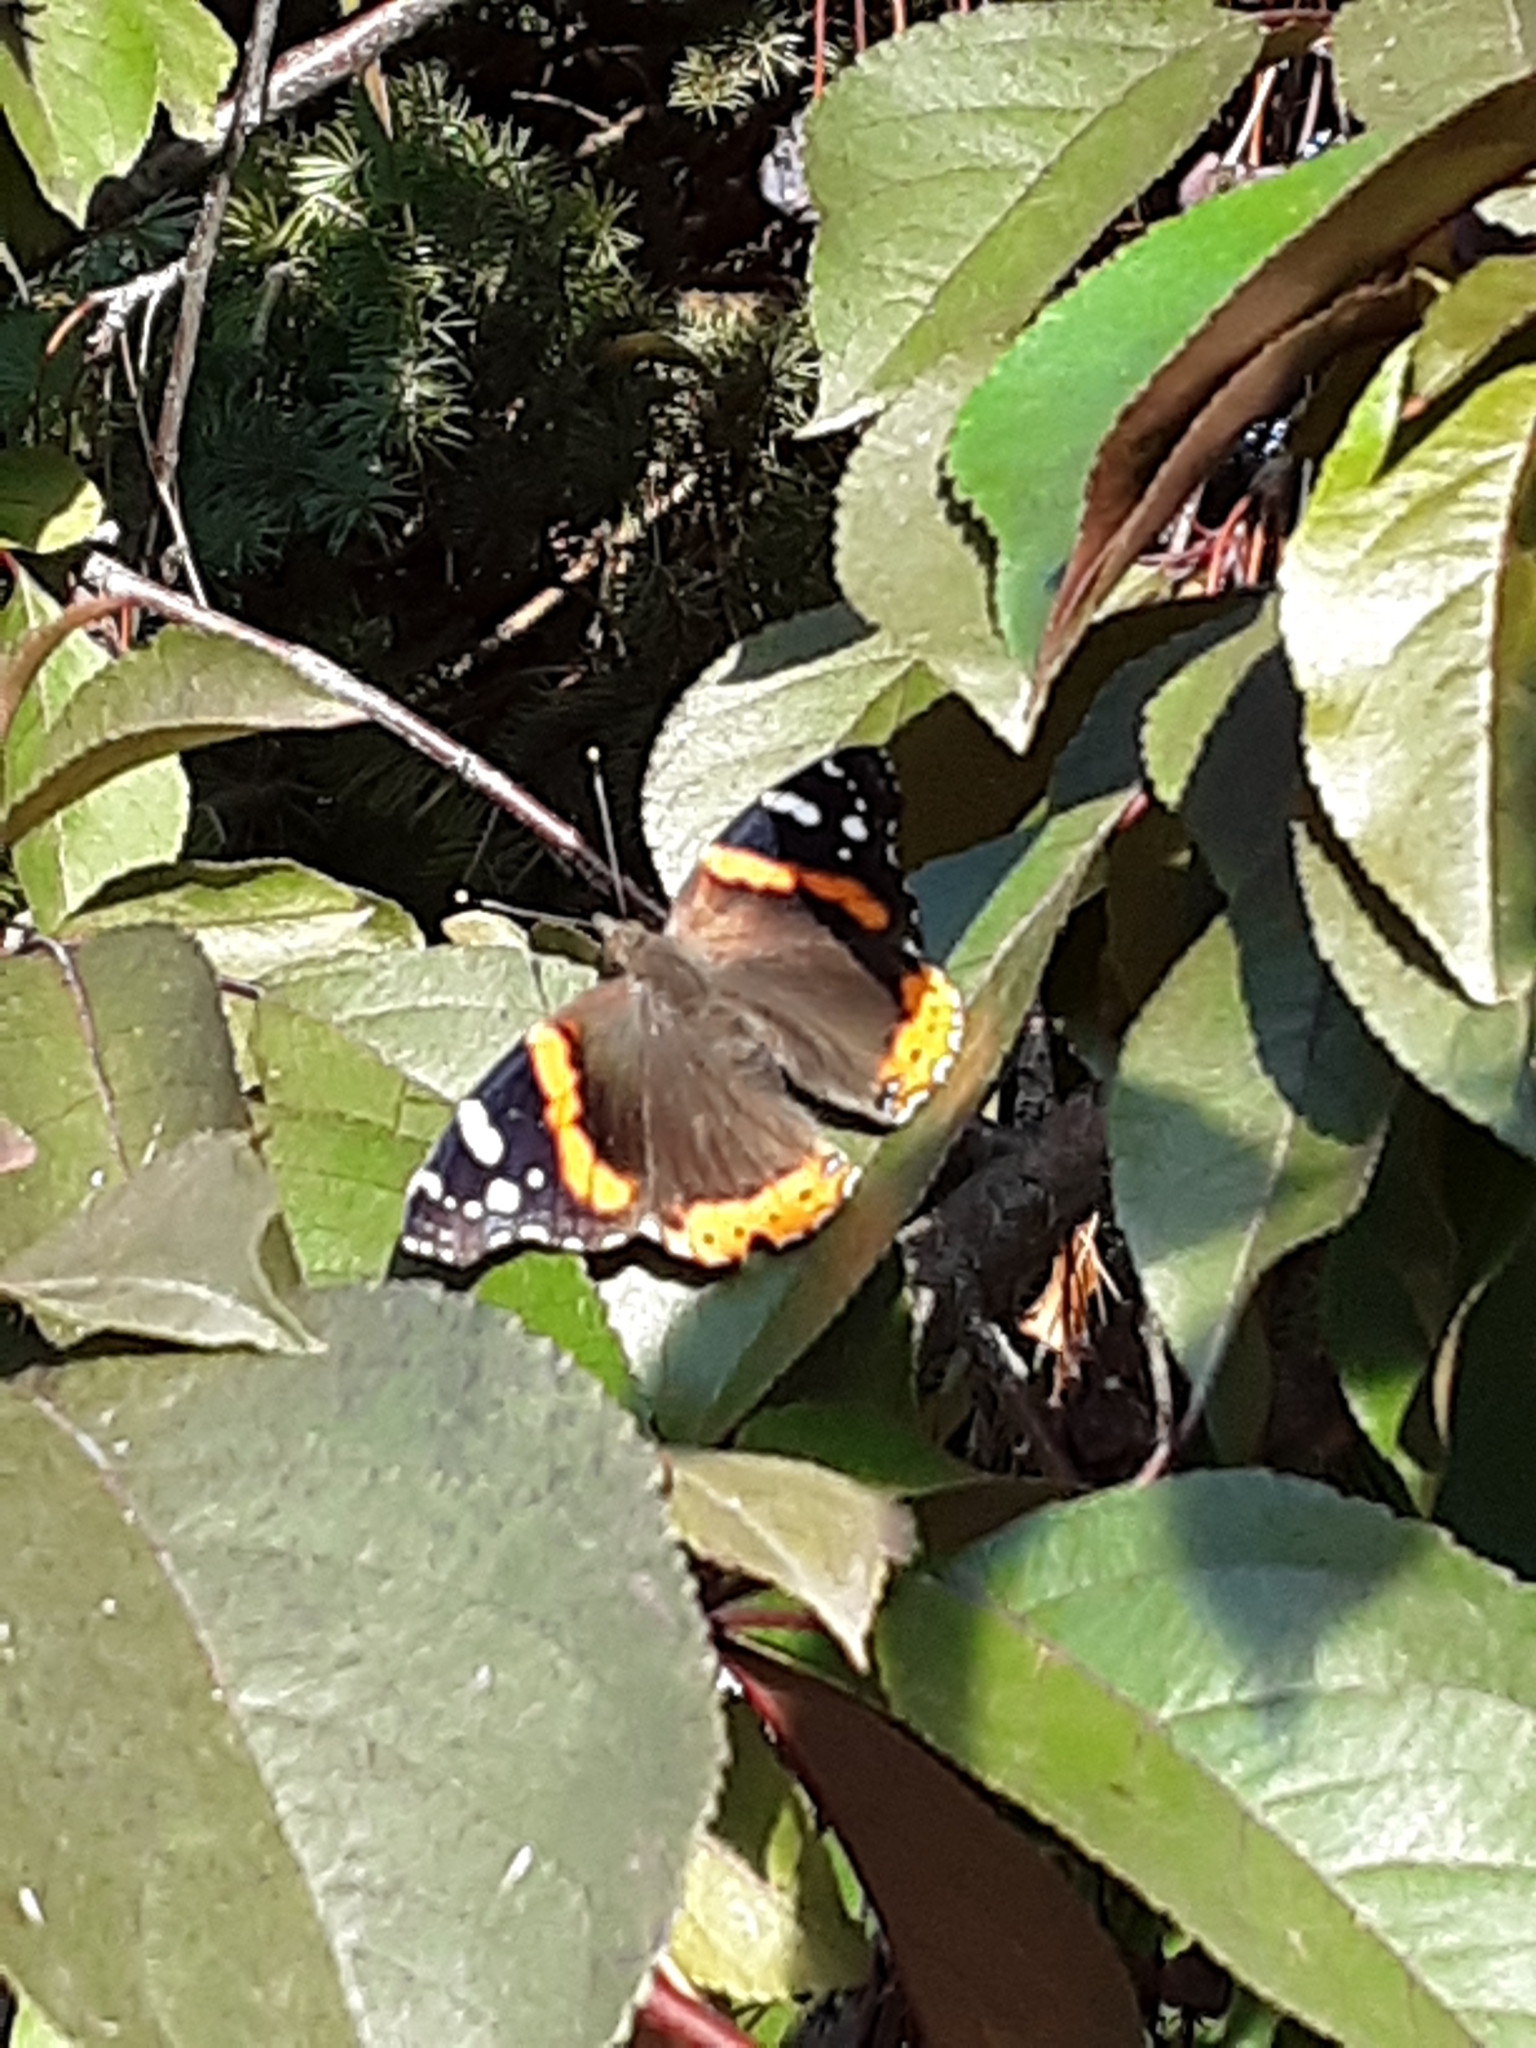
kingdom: Animalia
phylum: Arthropoda
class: Insecta
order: Lepidoptera
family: Nymphalidae
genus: Vanessa
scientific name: Vanessa atalanta
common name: Red admiral
